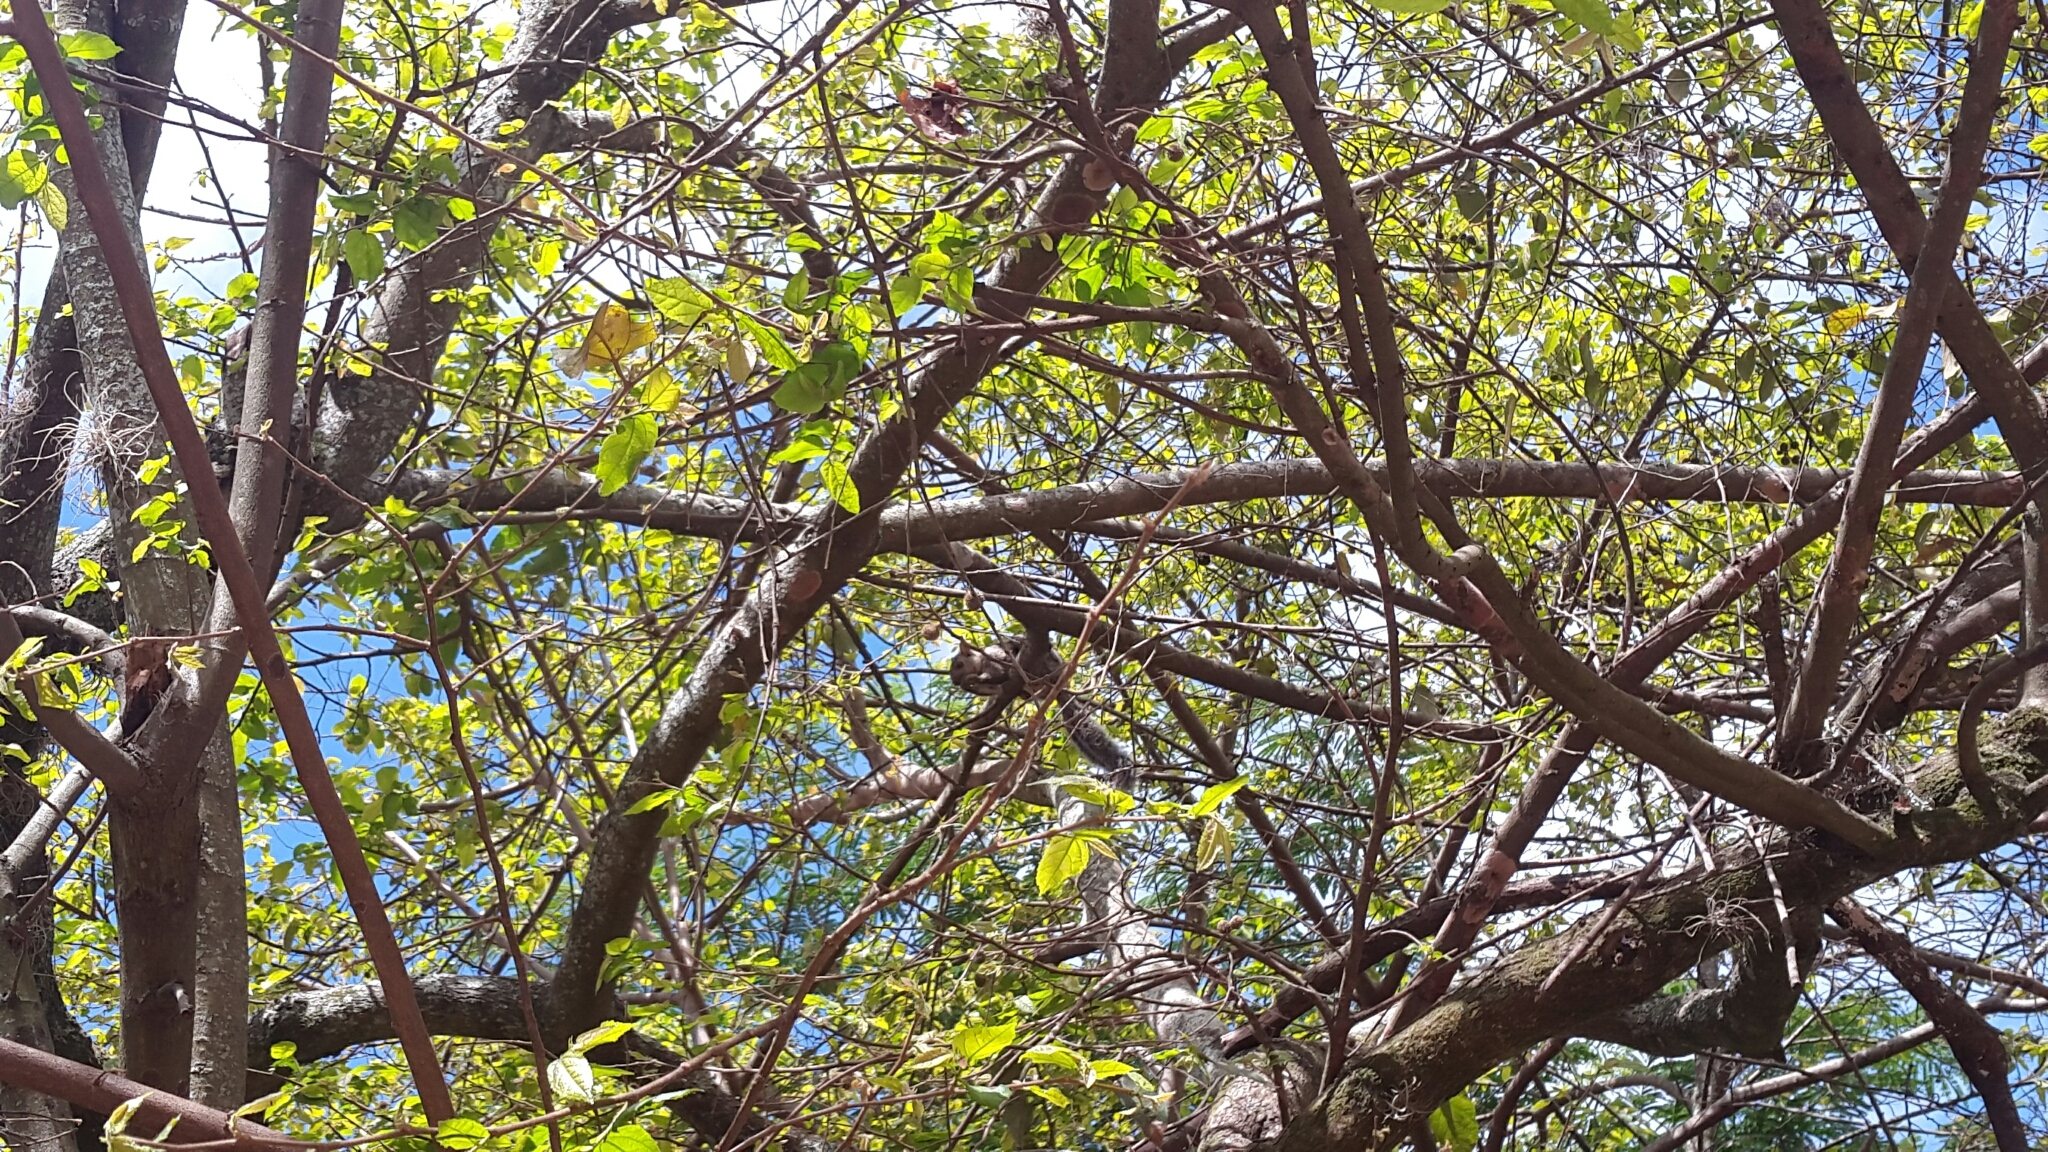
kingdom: Animalia
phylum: Chordata
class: Mammalia
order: Rodentia
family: Sciuridae
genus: Sciurus
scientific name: Sciurus variegatoides
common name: Variegated squirrel
